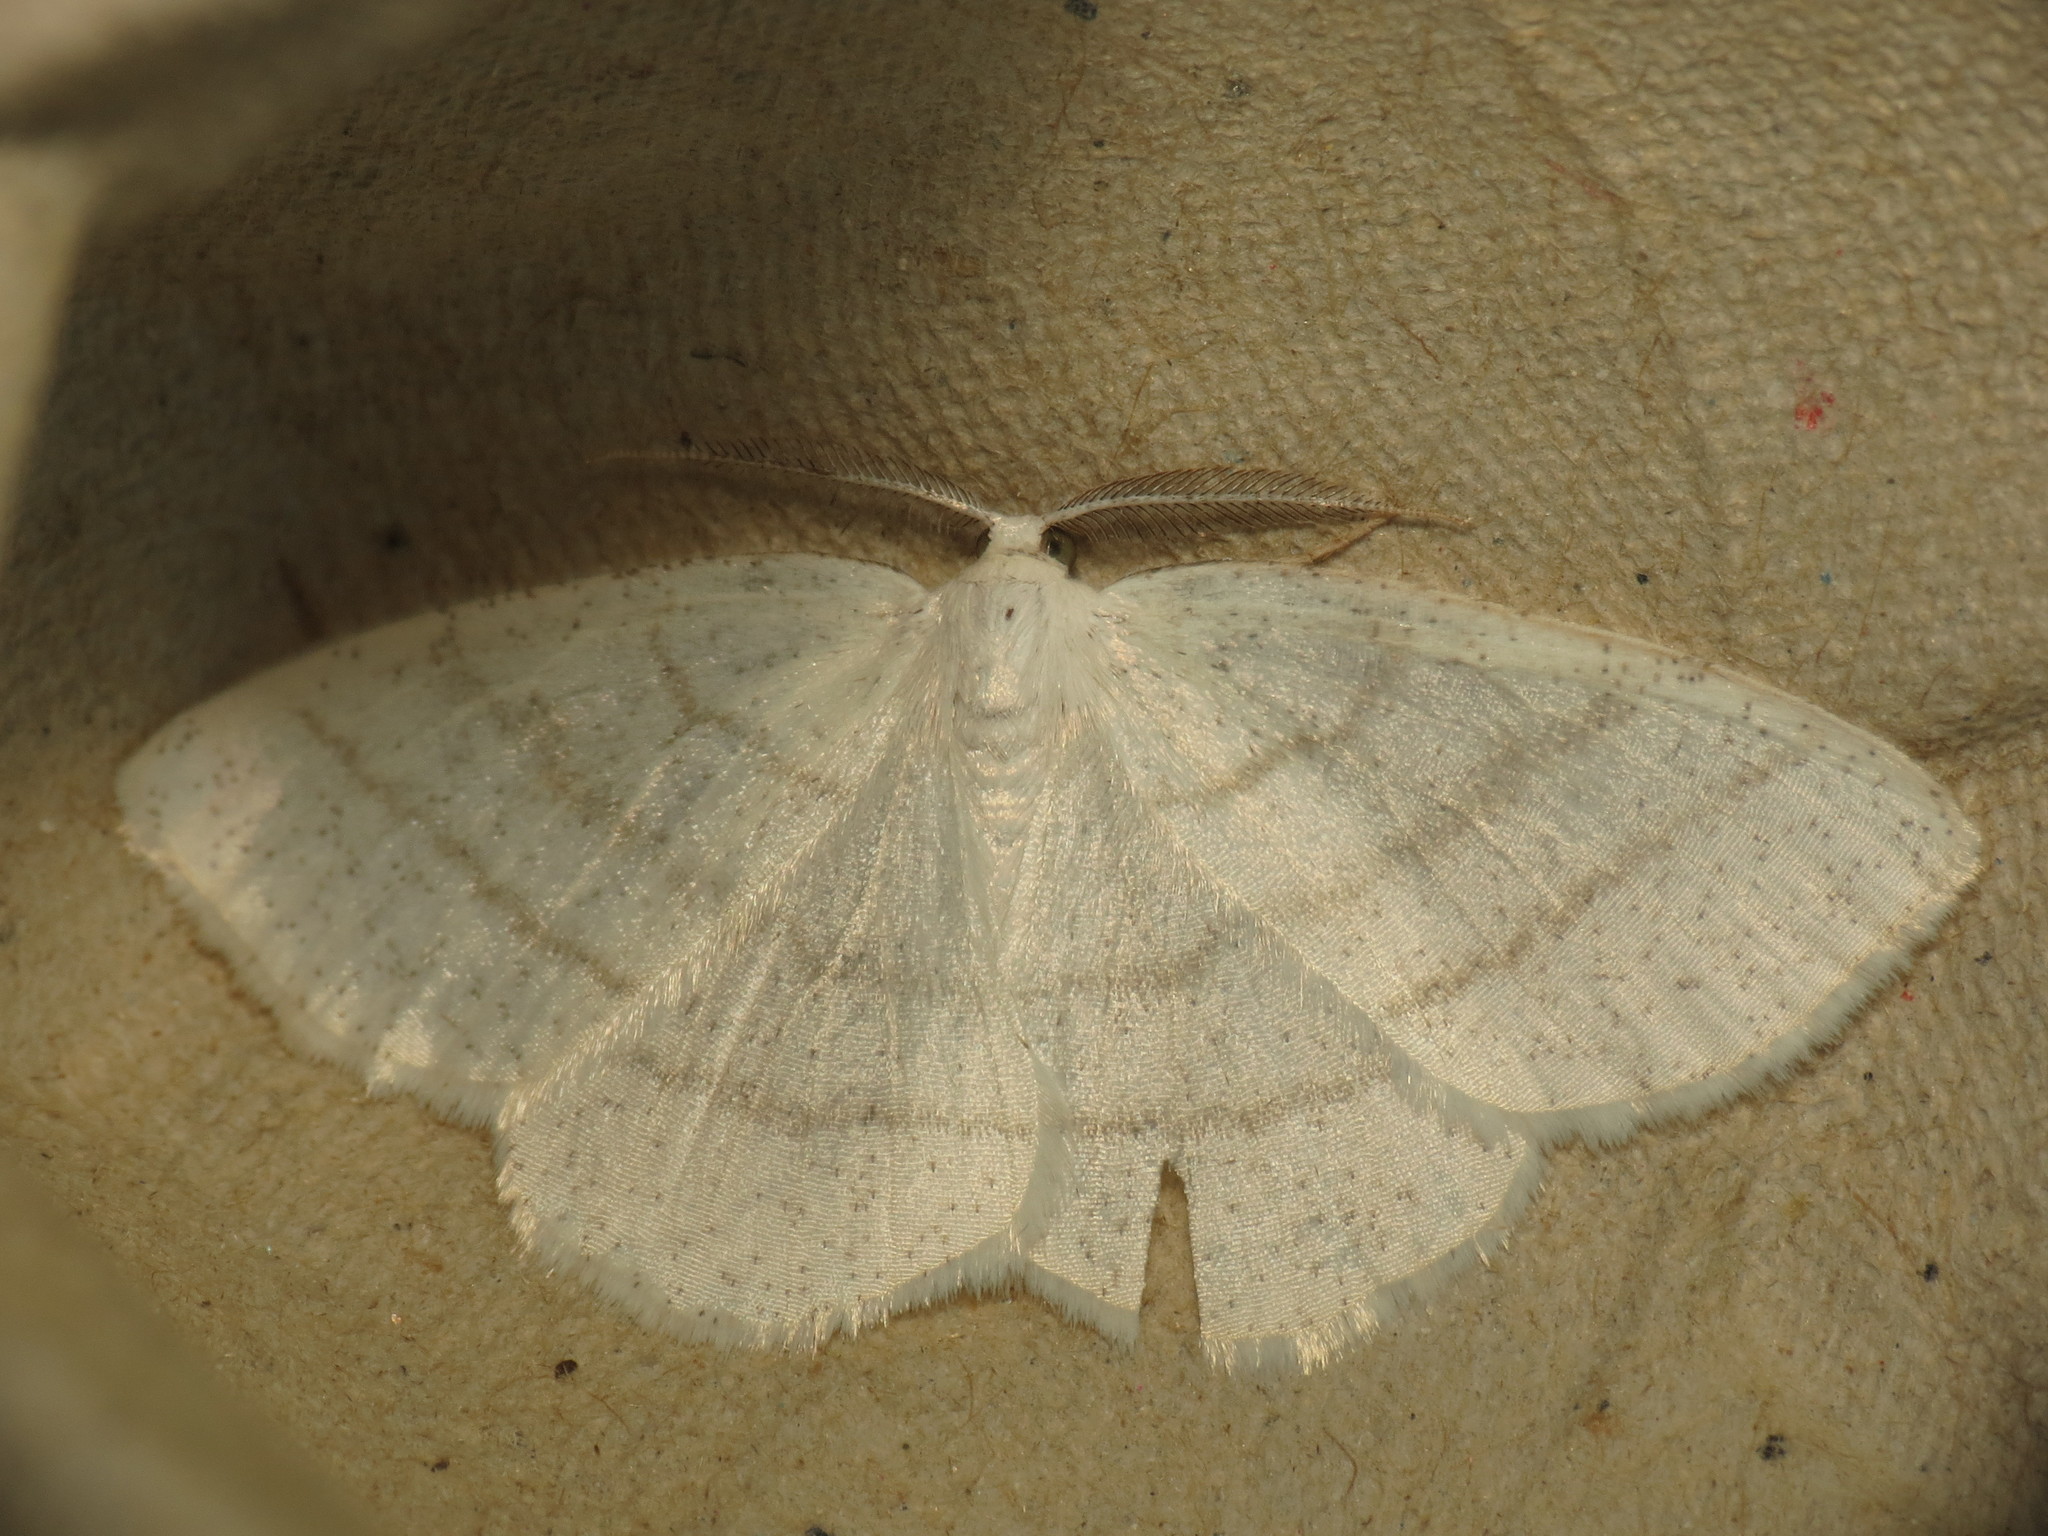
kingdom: Animalia
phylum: Arthropoda
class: Insecta
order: Lepidoptera
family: Geometridae
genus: Cabera
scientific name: Cabera pusaria
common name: Common white wave
